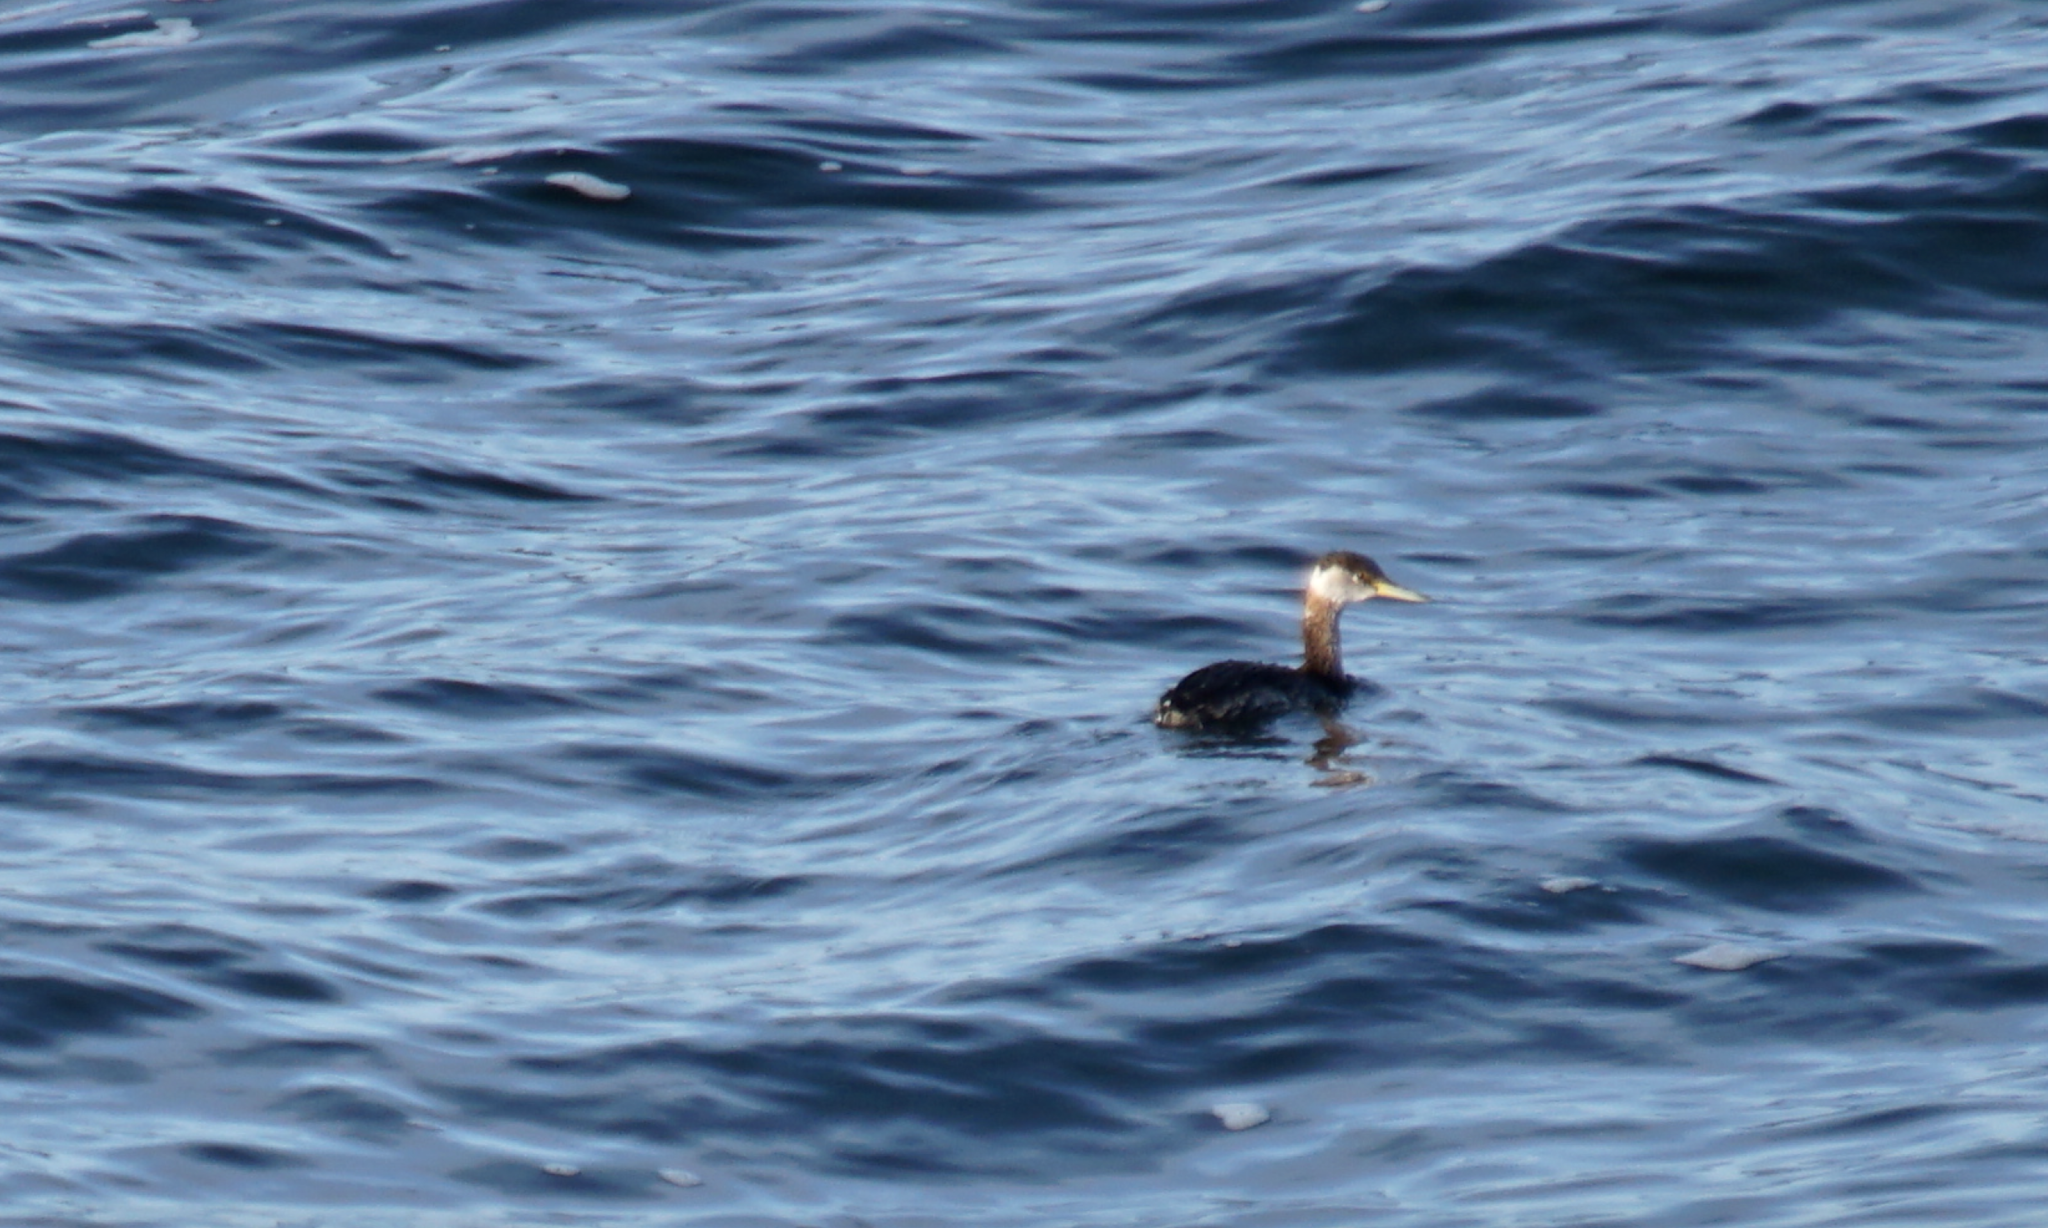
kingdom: Animalia
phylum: Chordata
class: Aves
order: Podicipediformes
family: Podicipedidae
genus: Podiceps
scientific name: Podiceps grisegena
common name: Red-necked grebe
